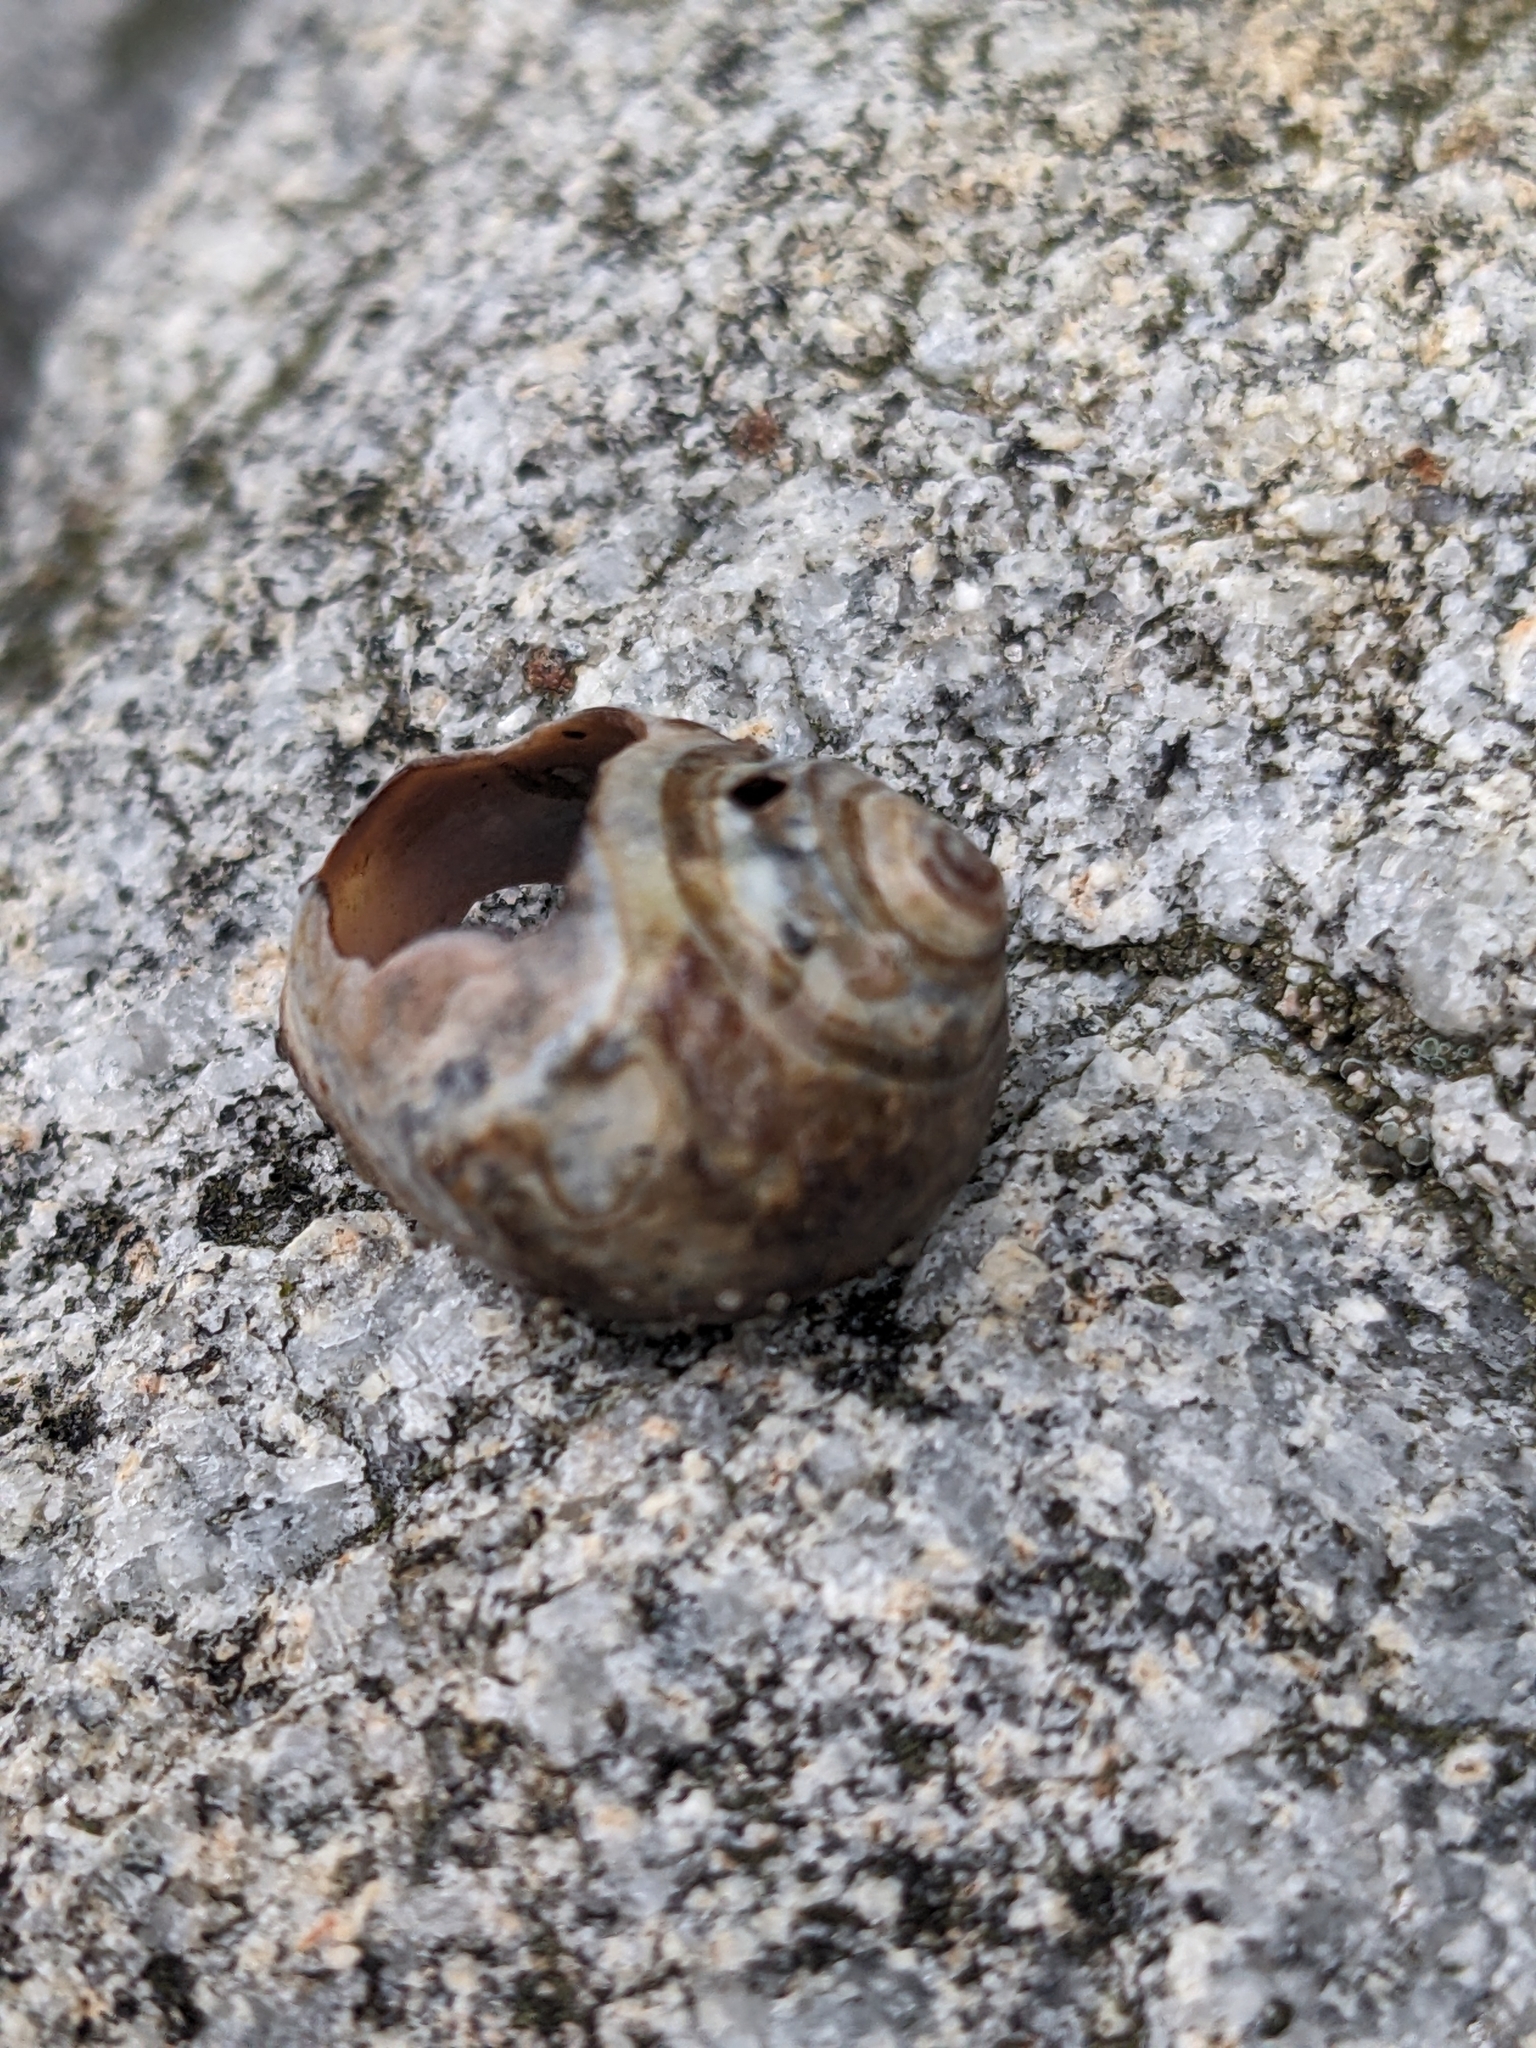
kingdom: Animalia
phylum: Mollusca
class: Gastropoda
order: Littorinimorpha
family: Littorinidae
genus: Littorina
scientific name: Littorina littorea
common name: Common periwinkle
